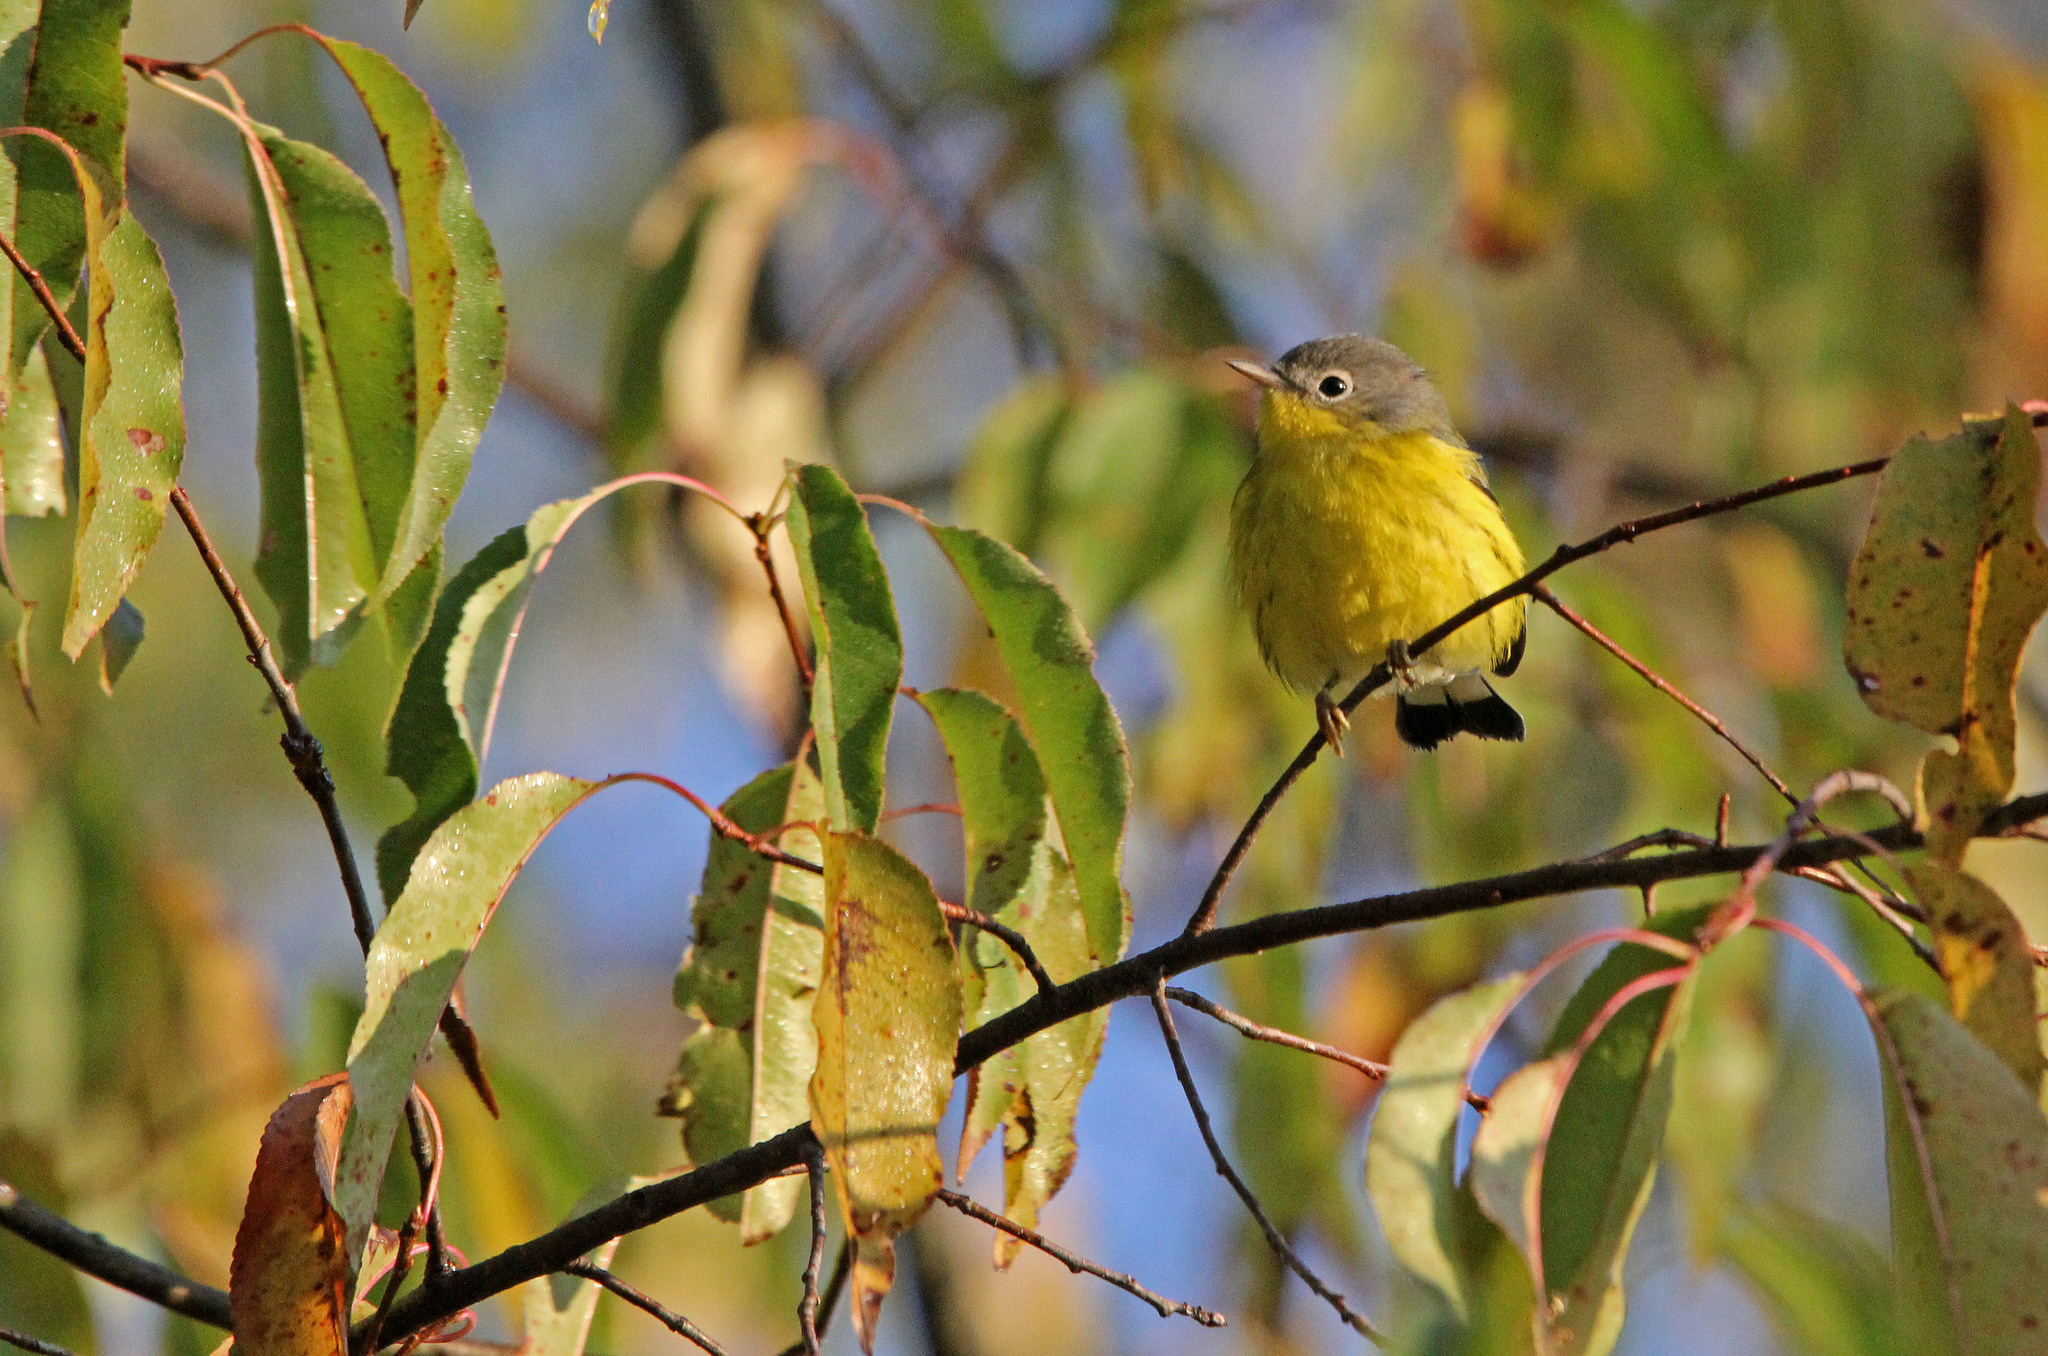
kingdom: Animalia
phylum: Chordata
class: Aves
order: Passeriformes
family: Parulidae
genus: Setophaga
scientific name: Setophaga magnolia
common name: Magnolia warbler
